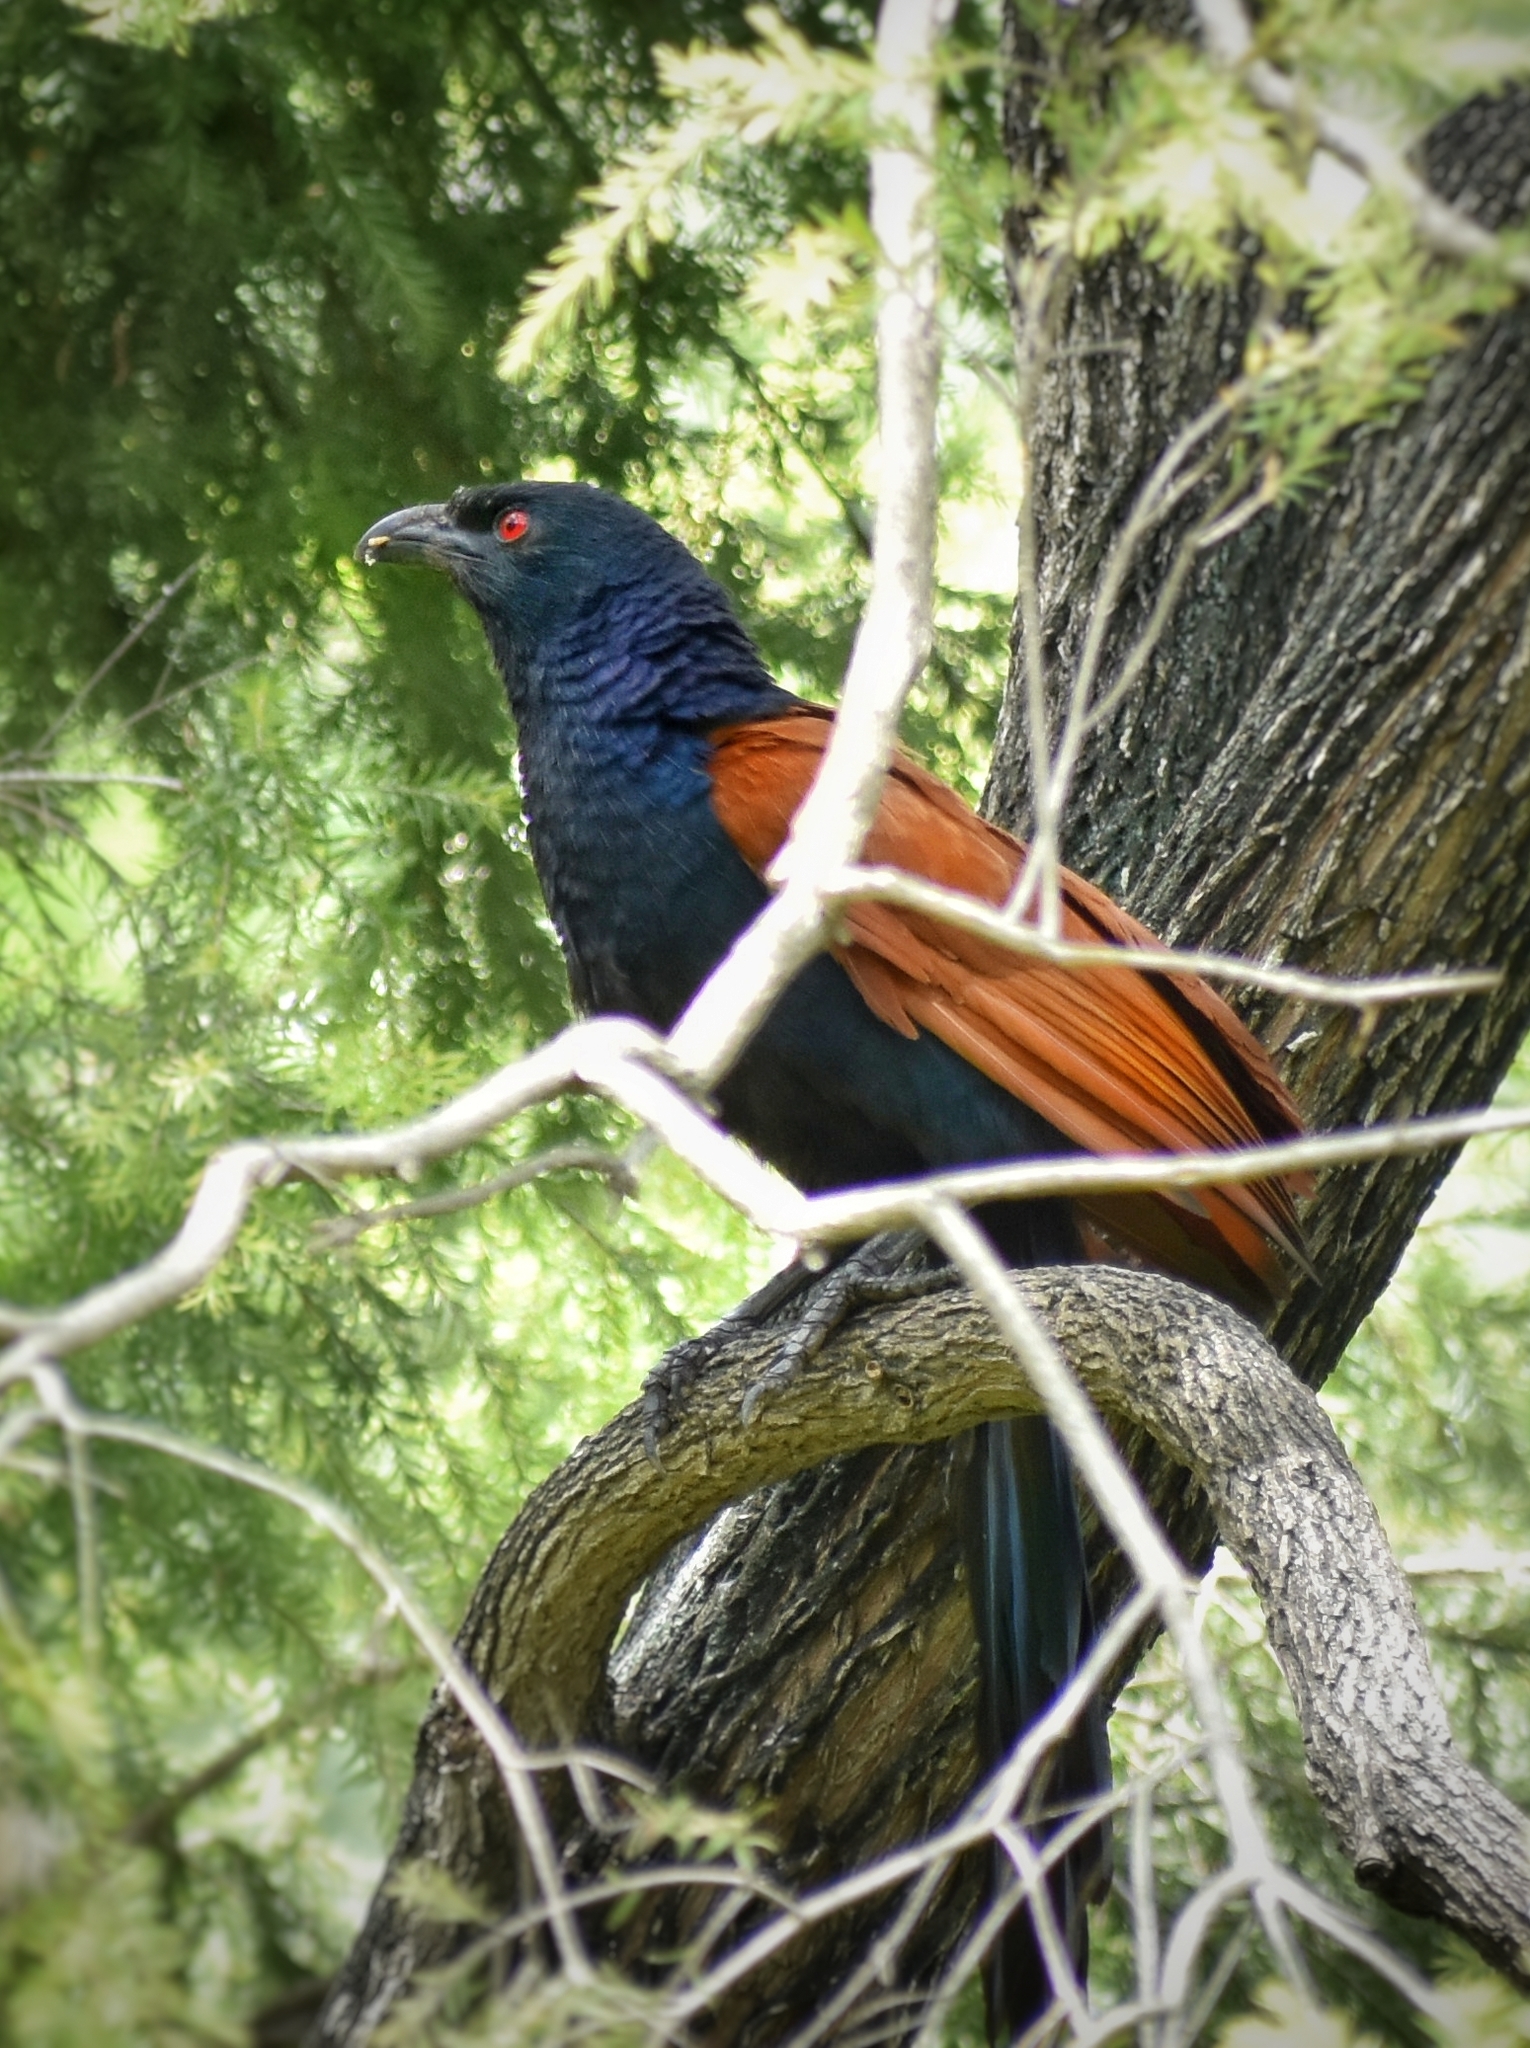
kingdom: Animalia
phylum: Chordata
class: Aves
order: Cuculiformes
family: Cuculidae
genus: Centropus
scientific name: Centropus sinensis
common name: Greater coucal
